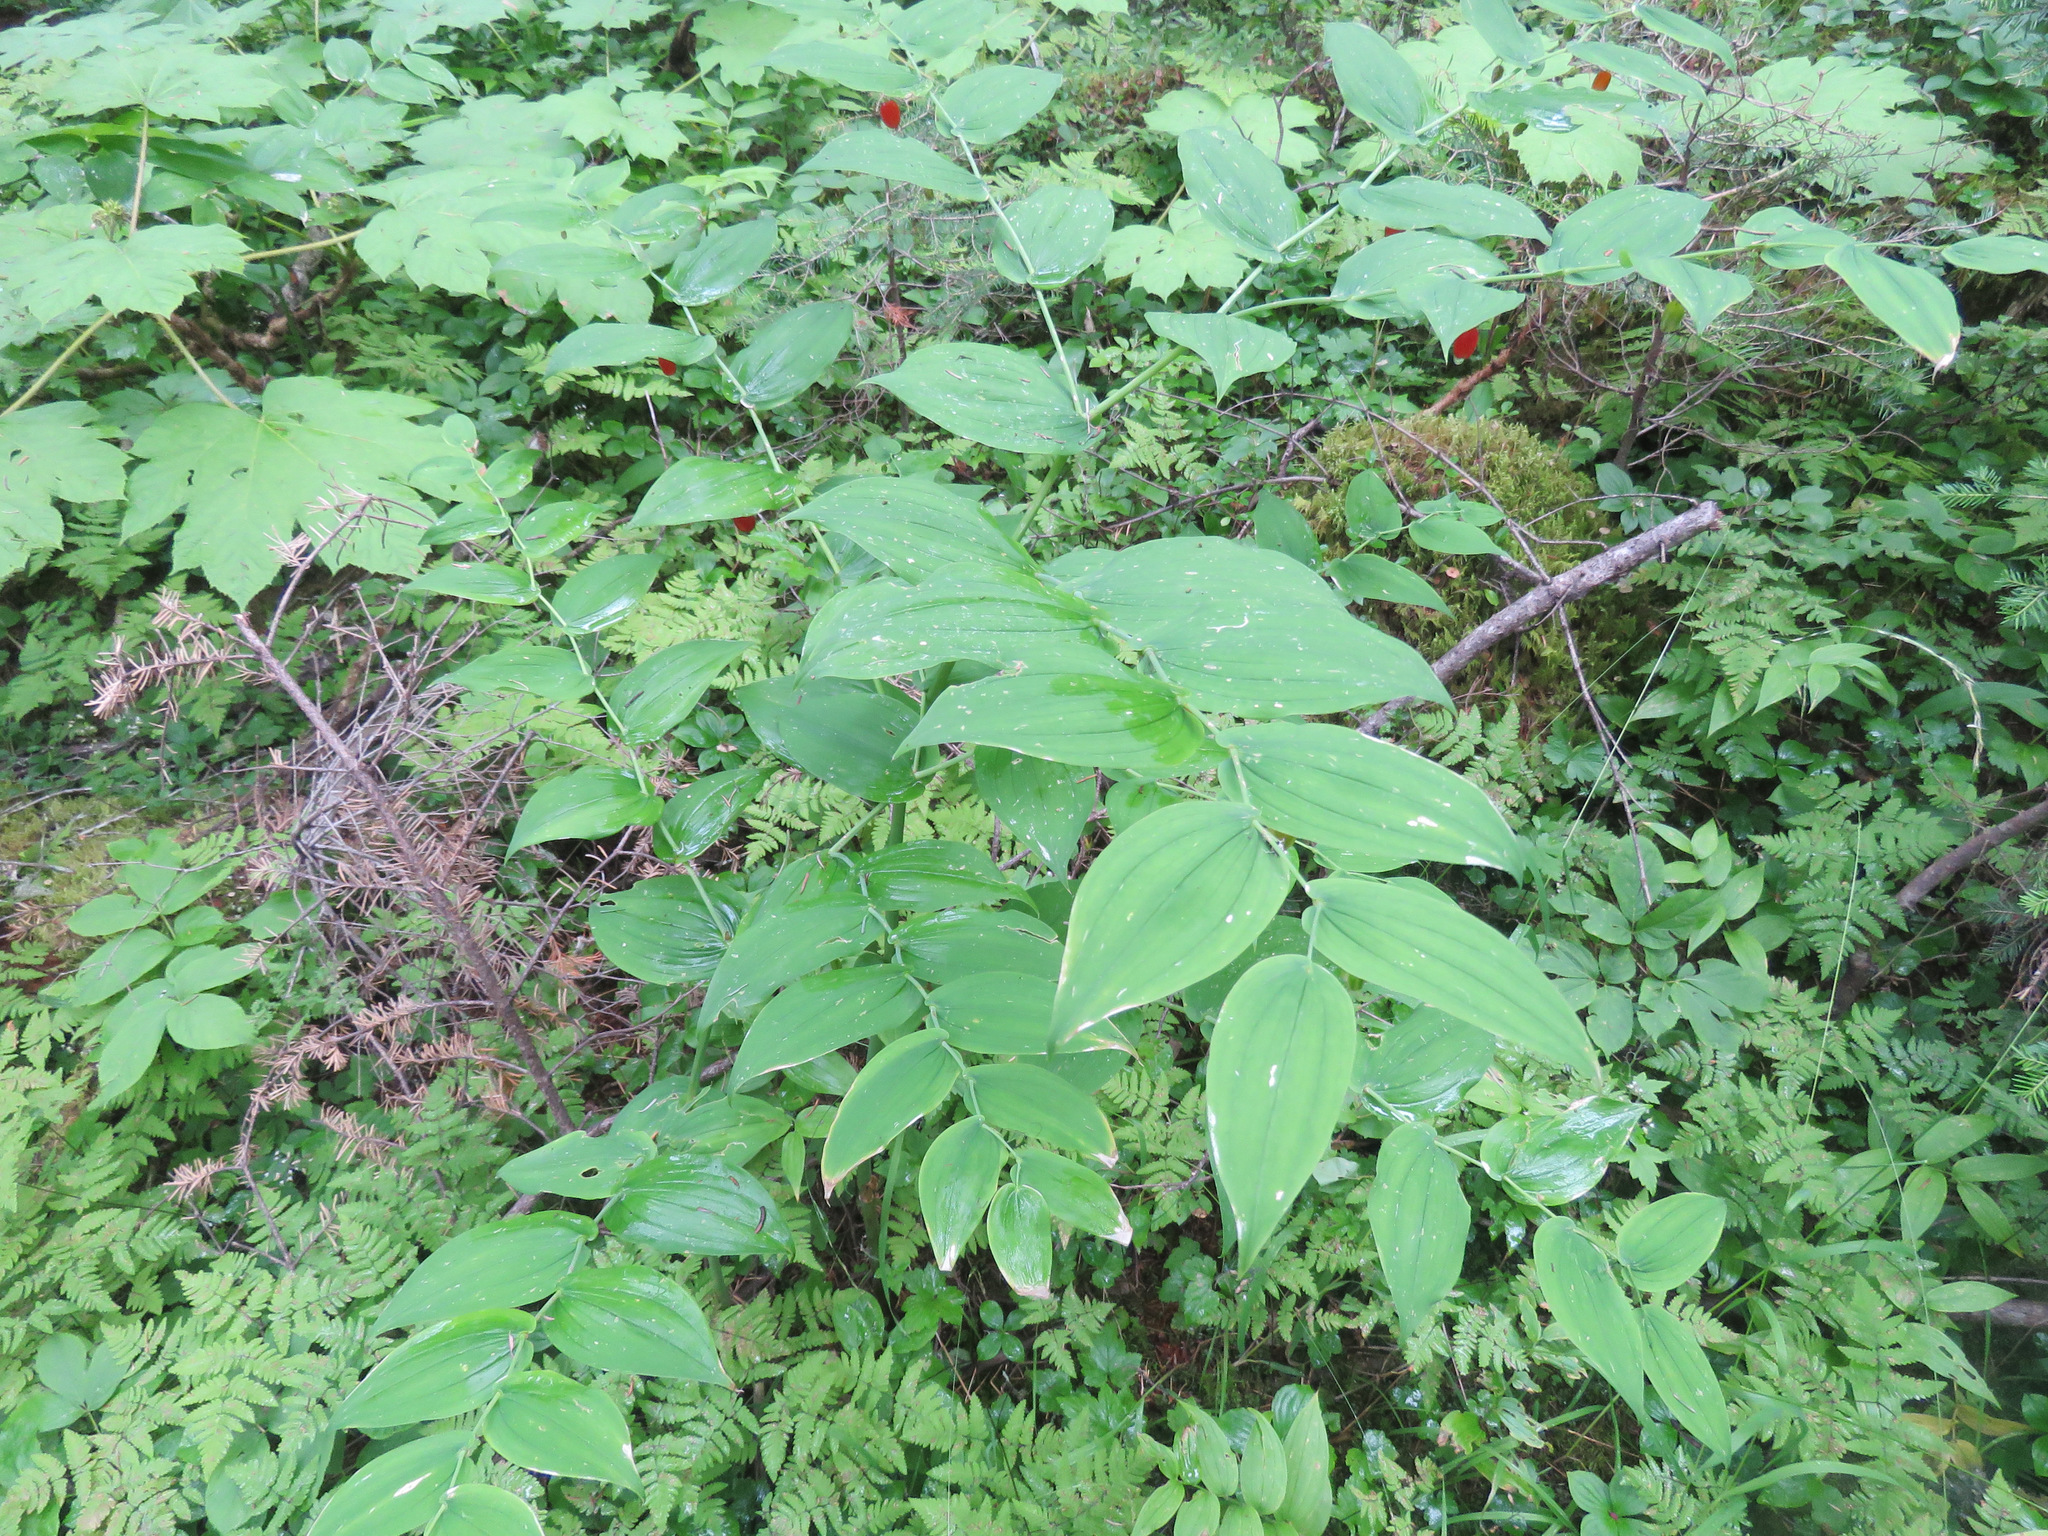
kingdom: Plantae
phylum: Tracheophyta
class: Liliopsida
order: Liliales
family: Liliaceae
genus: Streptopus
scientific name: Streptopus amplexifolius
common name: Clasp twisted stalk
